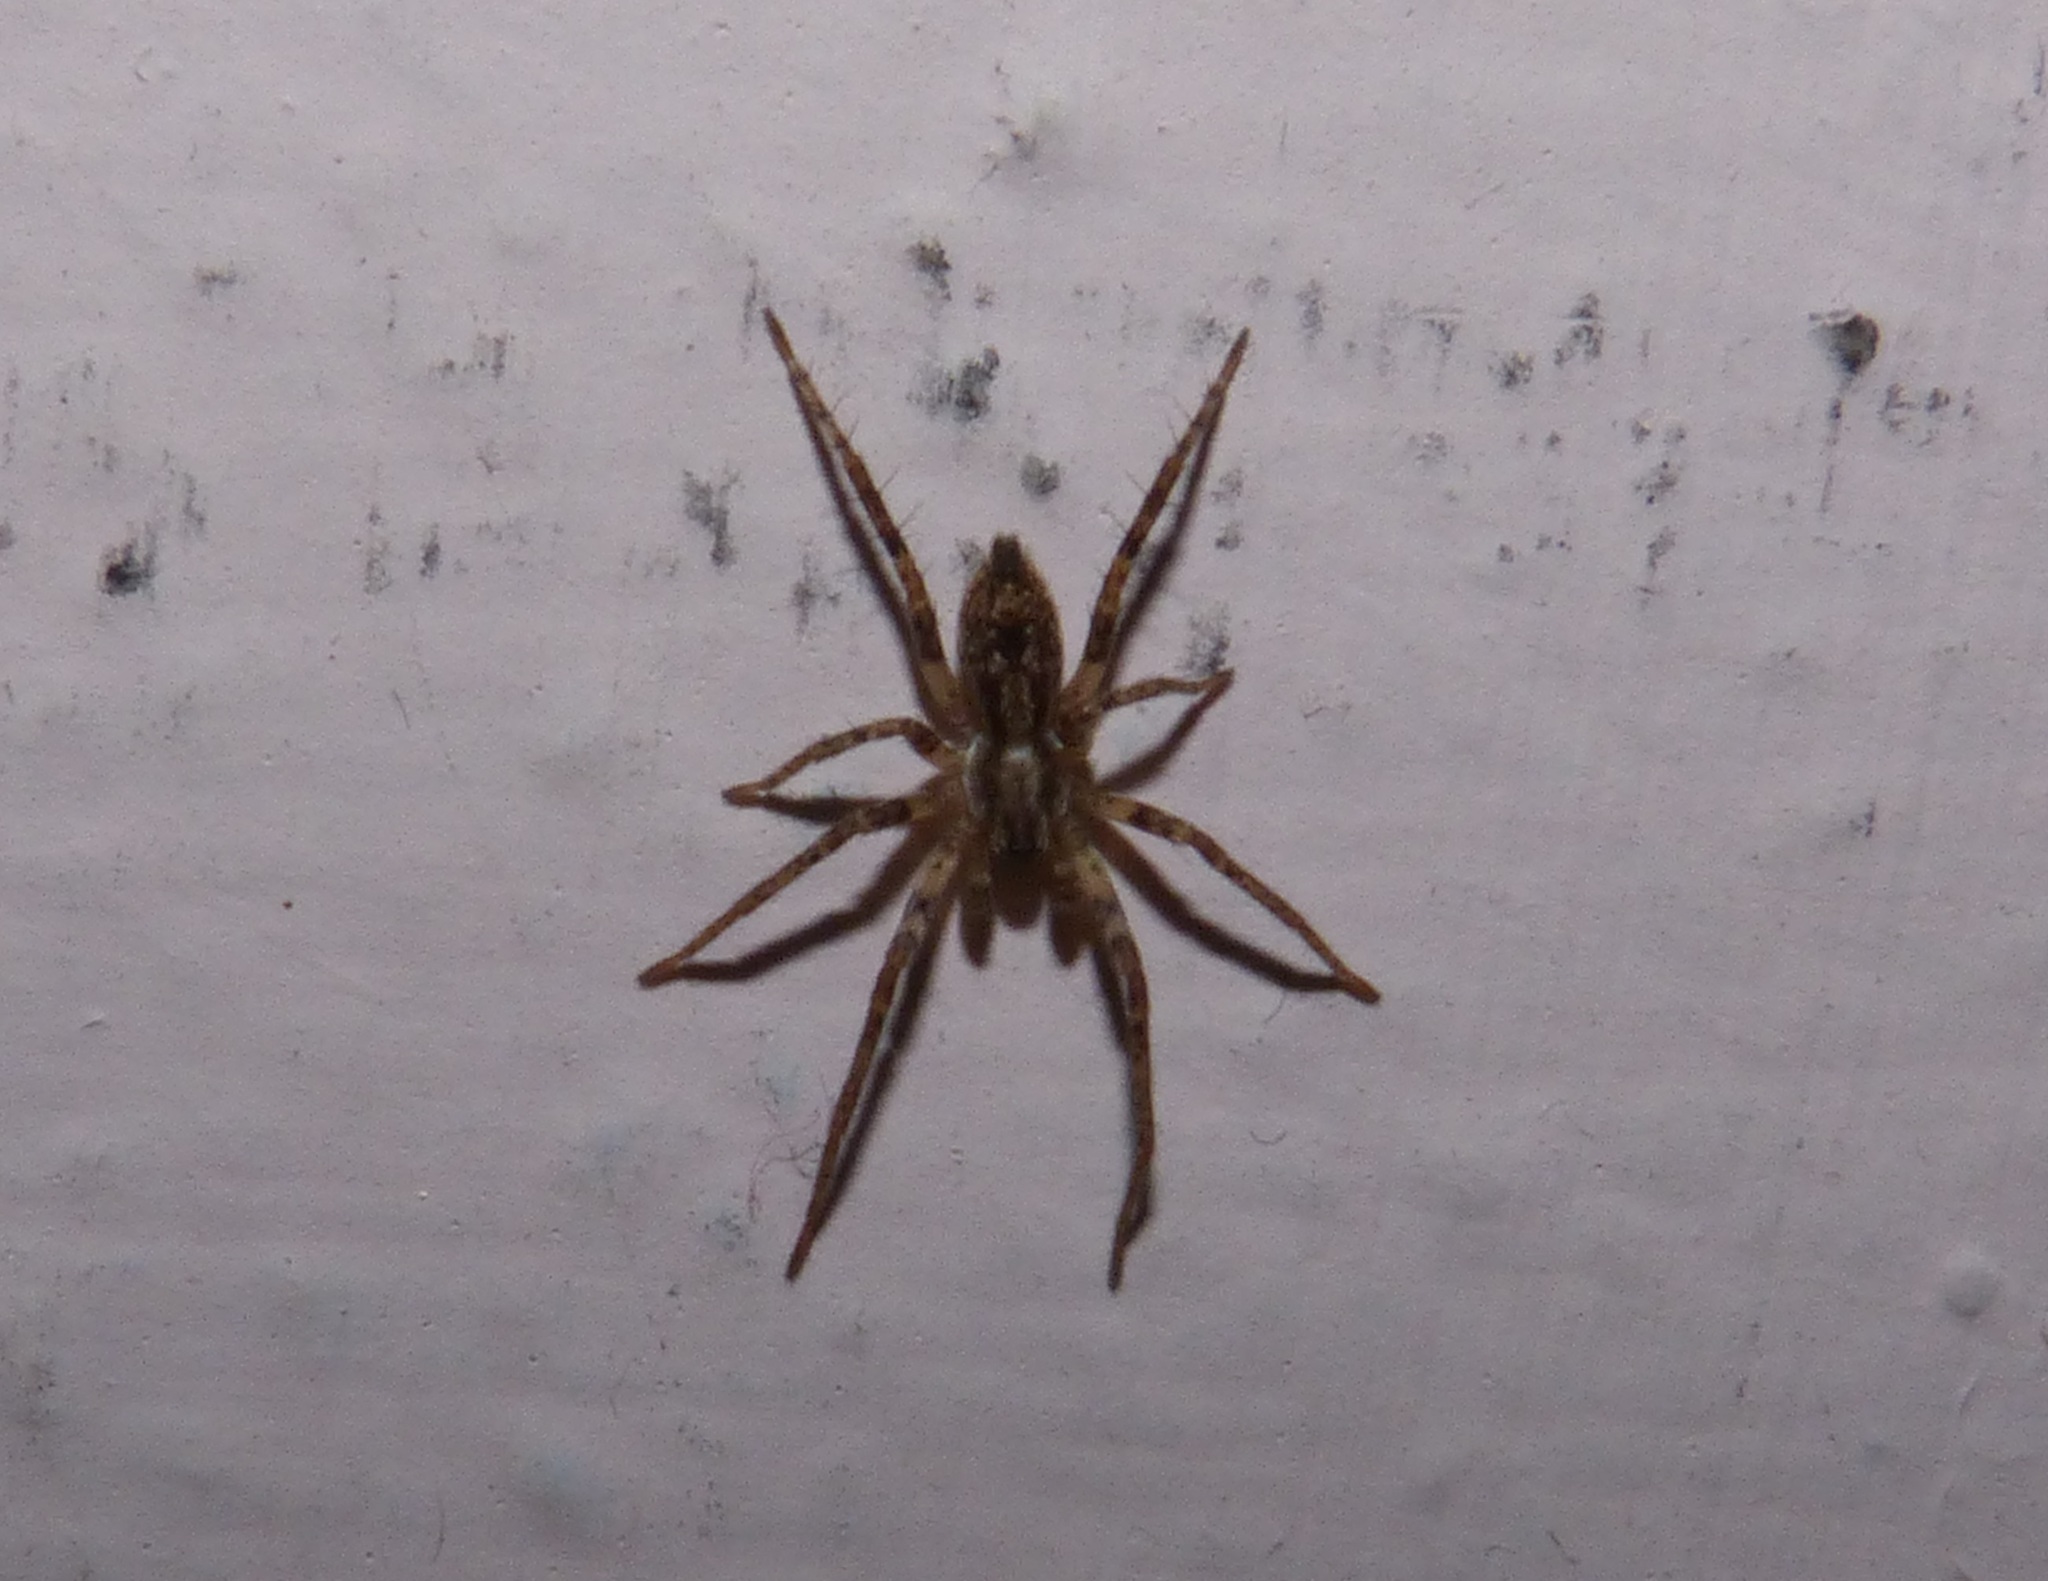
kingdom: Animalia
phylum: Arthropoda
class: Arachnida
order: Araneae
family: Anyphaenidae
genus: Anyphaena
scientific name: Anyphaena accentuata
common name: Buzzing spider
